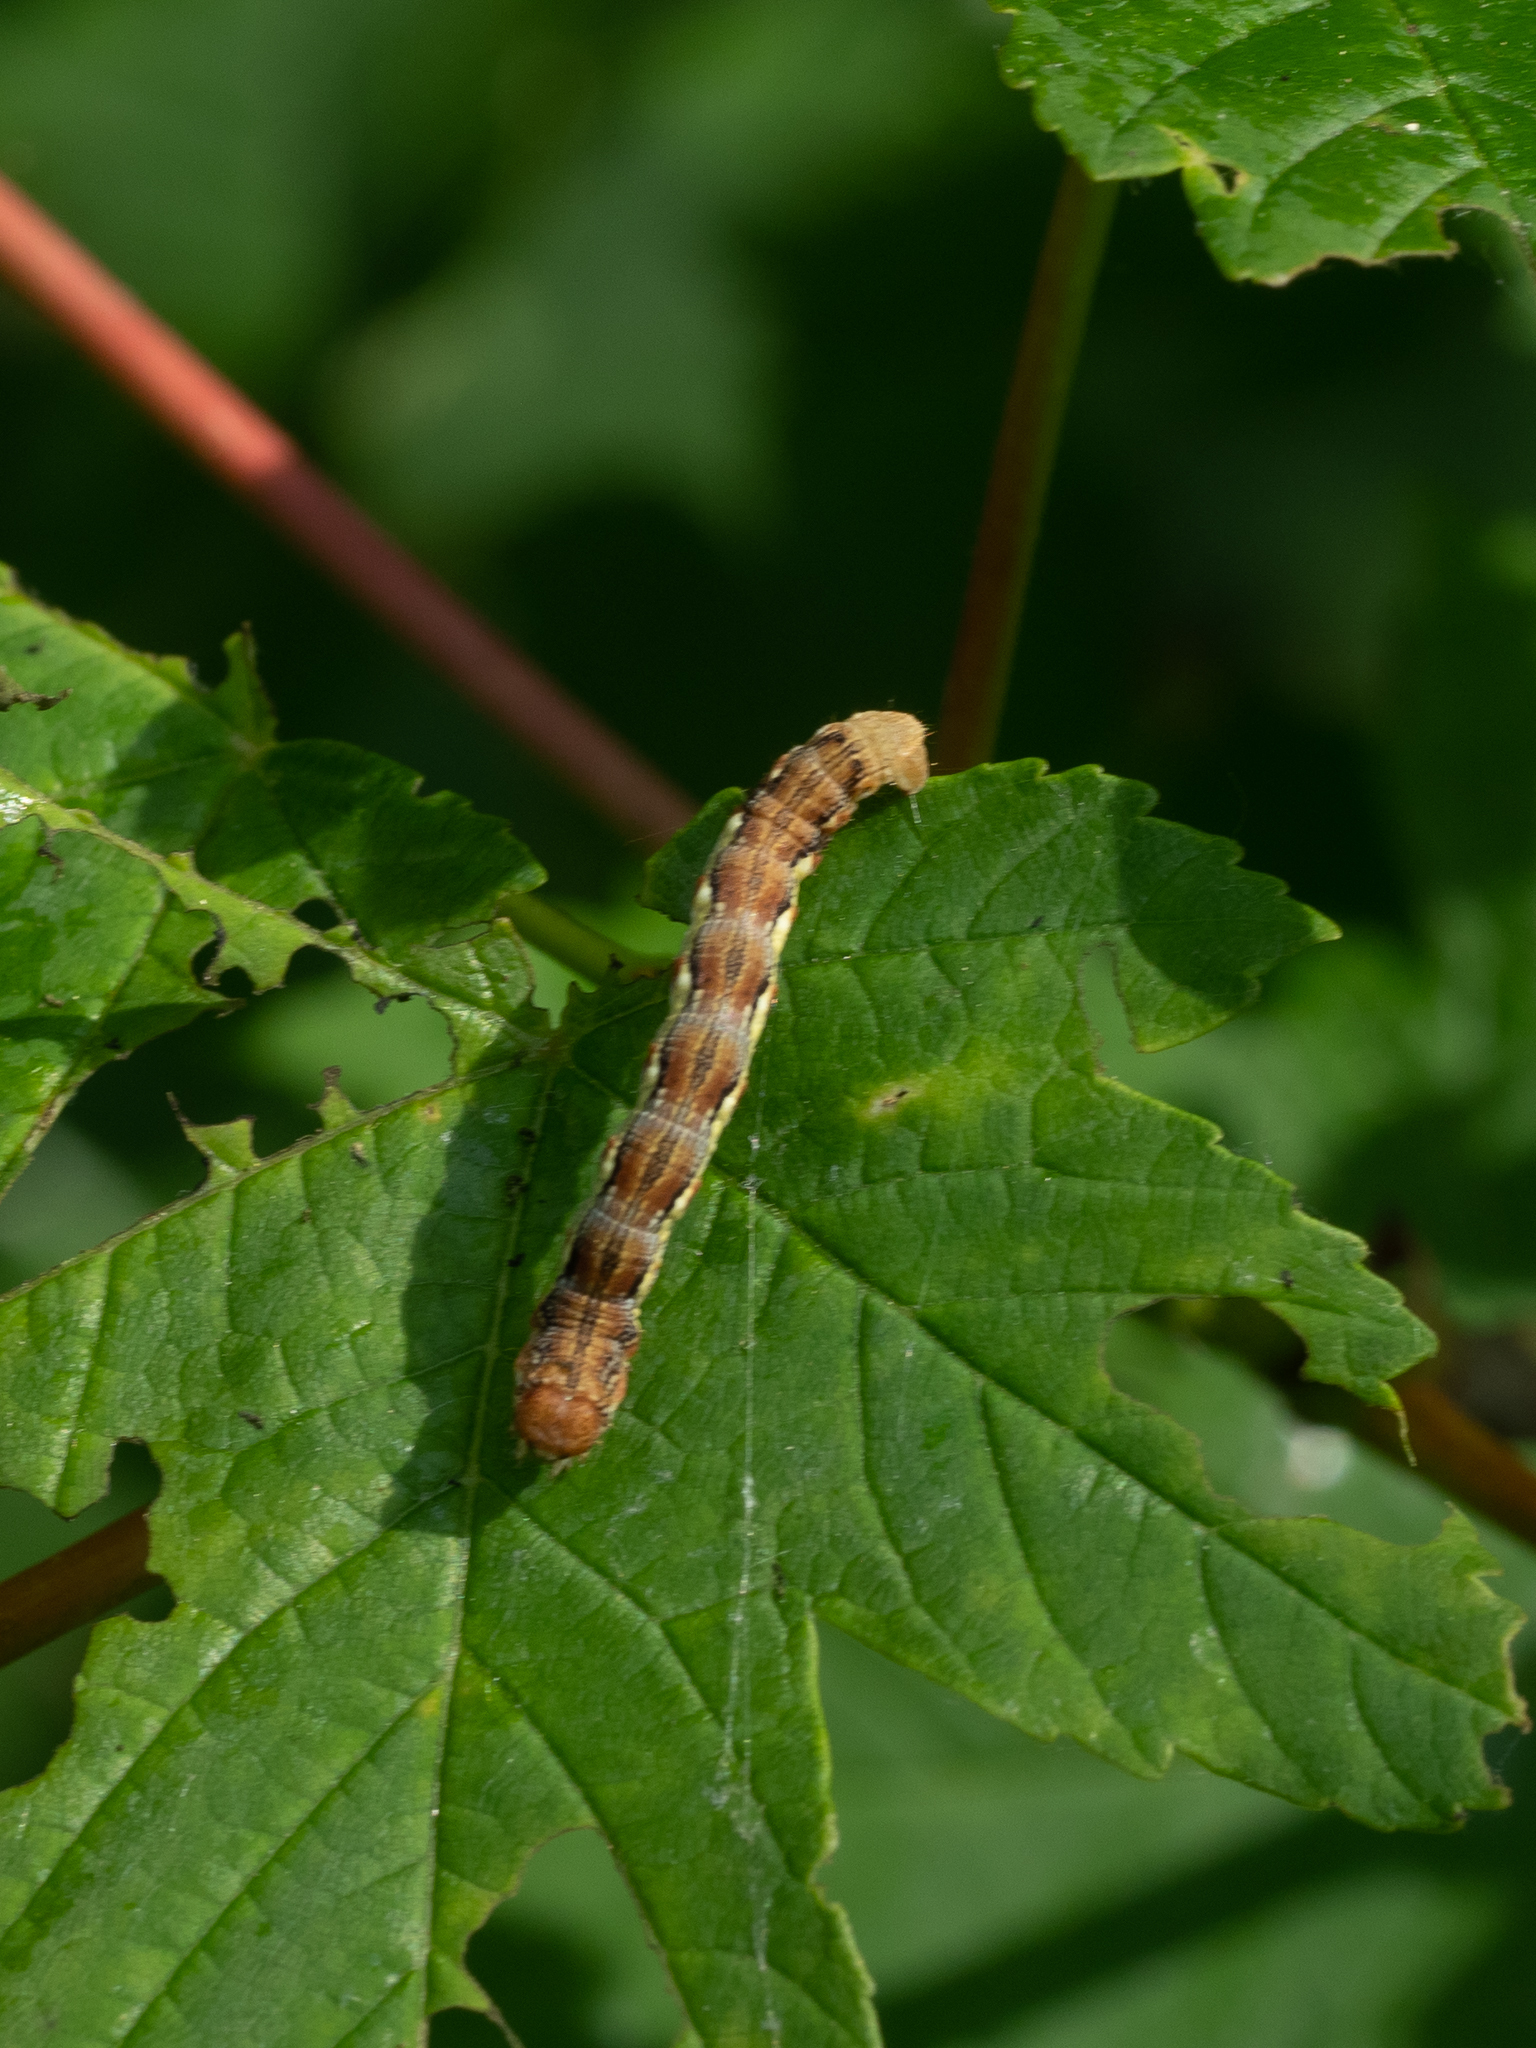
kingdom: Animalia
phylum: Arthropoda
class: Insecta
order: Lepidoptera
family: Geometridae
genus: Erannis
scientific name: Erannis defoliaria
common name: Mottled umber
